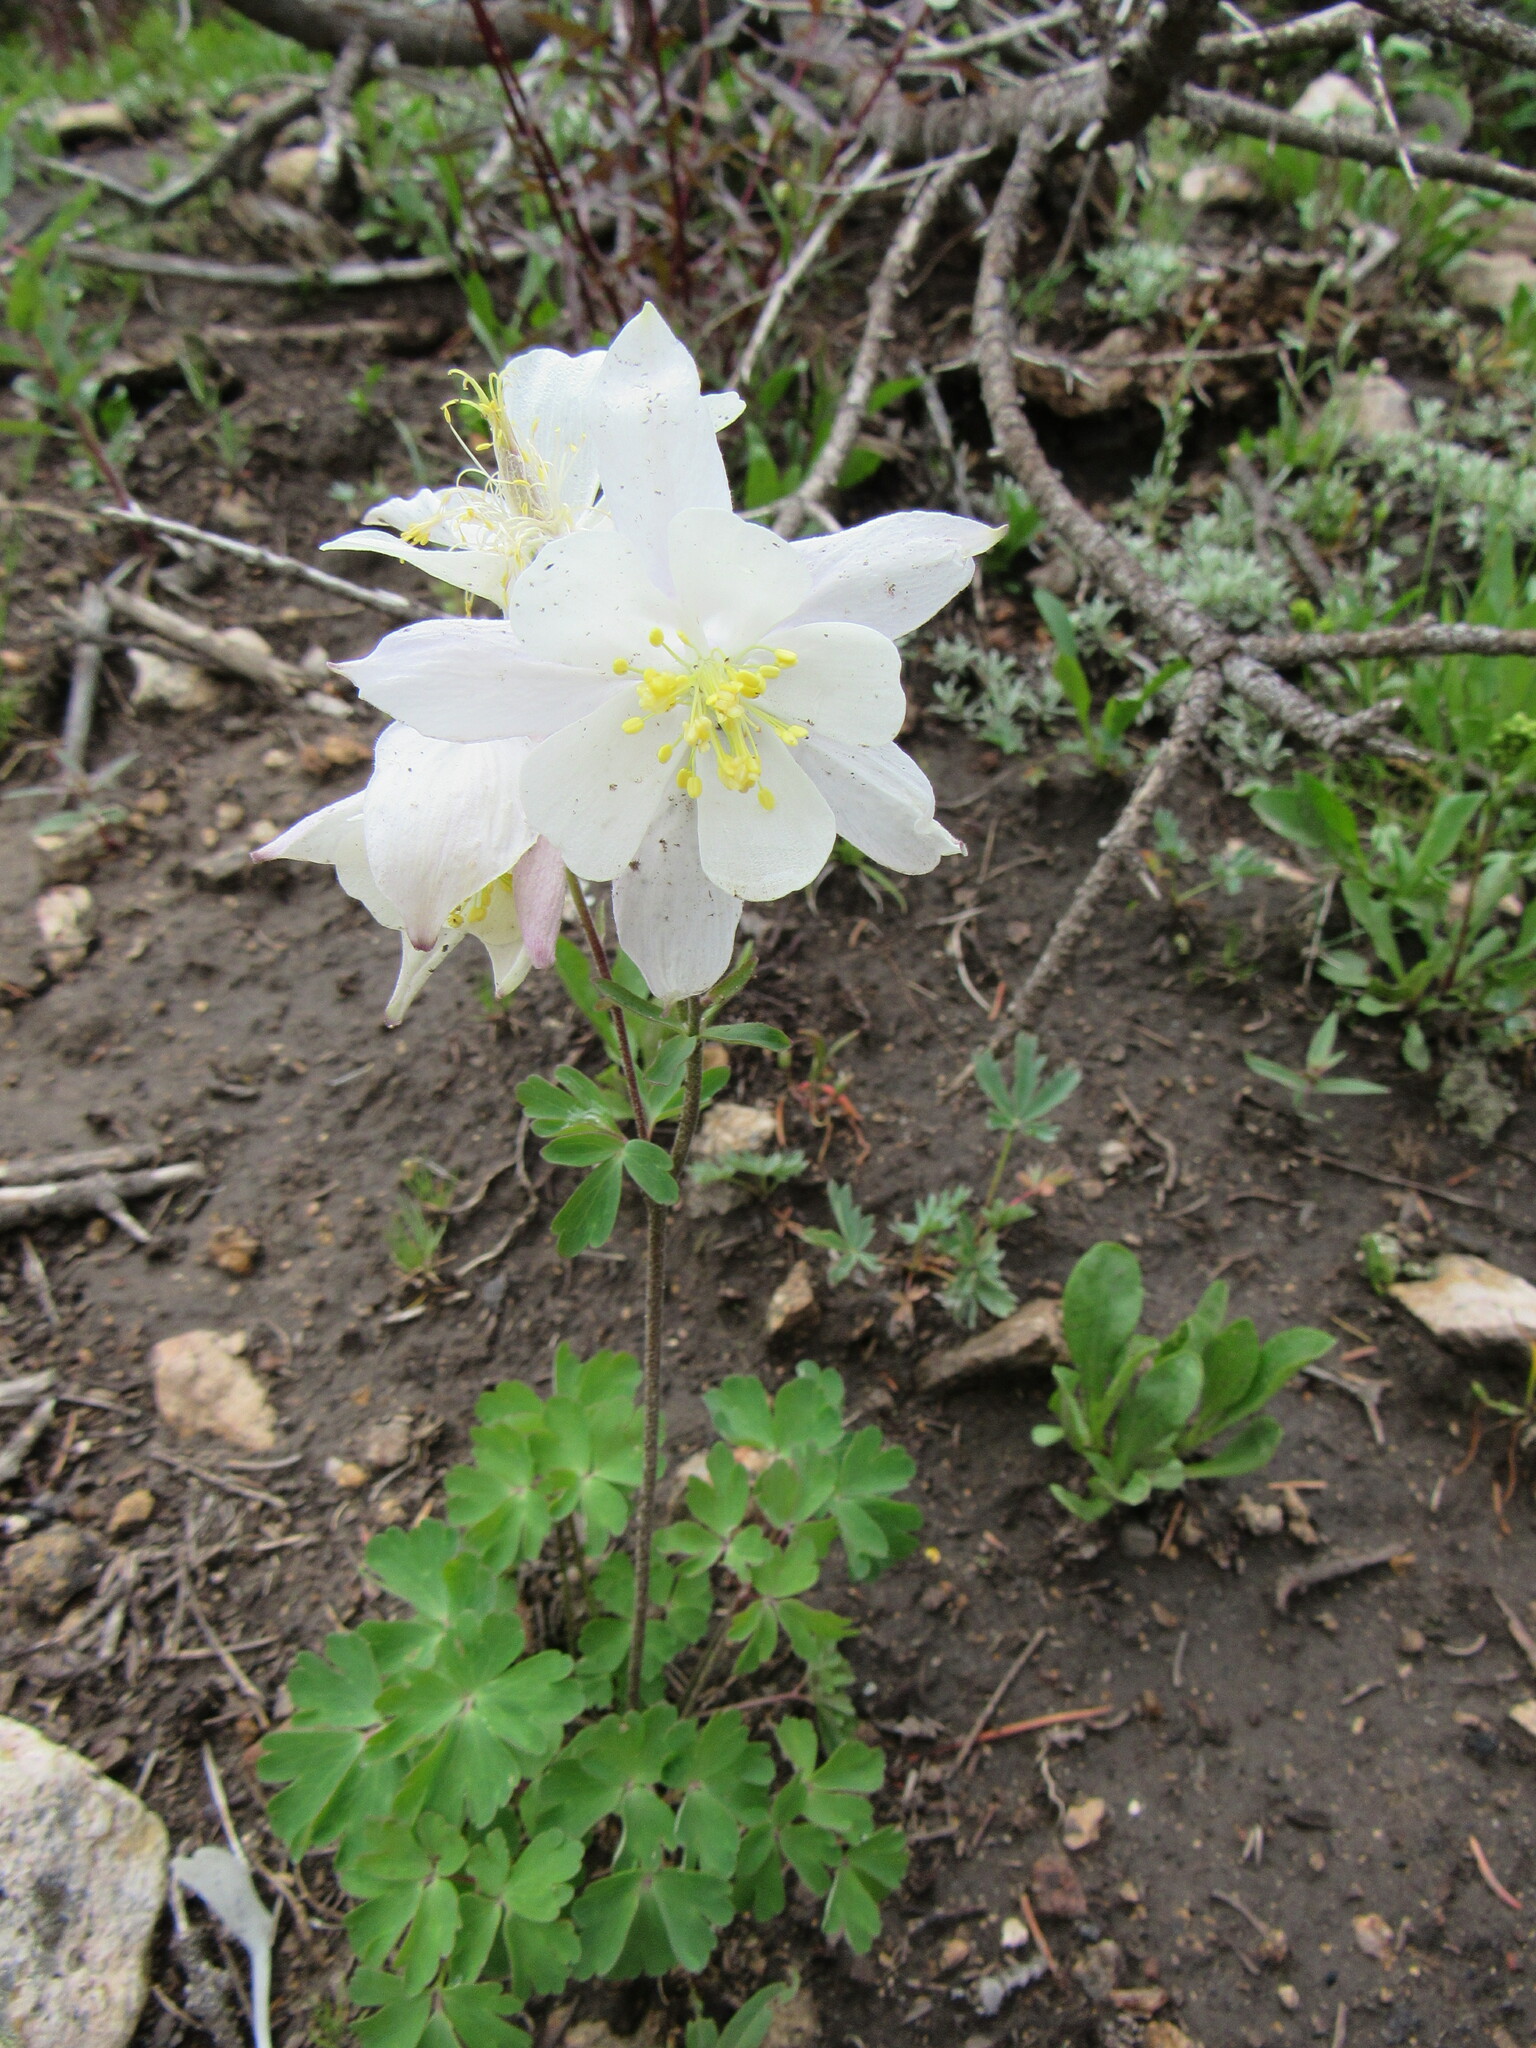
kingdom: Plantae
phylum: Tracheophyta
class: Magnoliopsida
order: Ranunculales
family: Ranunculaceae
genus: Aquilegia
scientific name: Aquilegia coerulea
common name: Rocky mountain columbine
